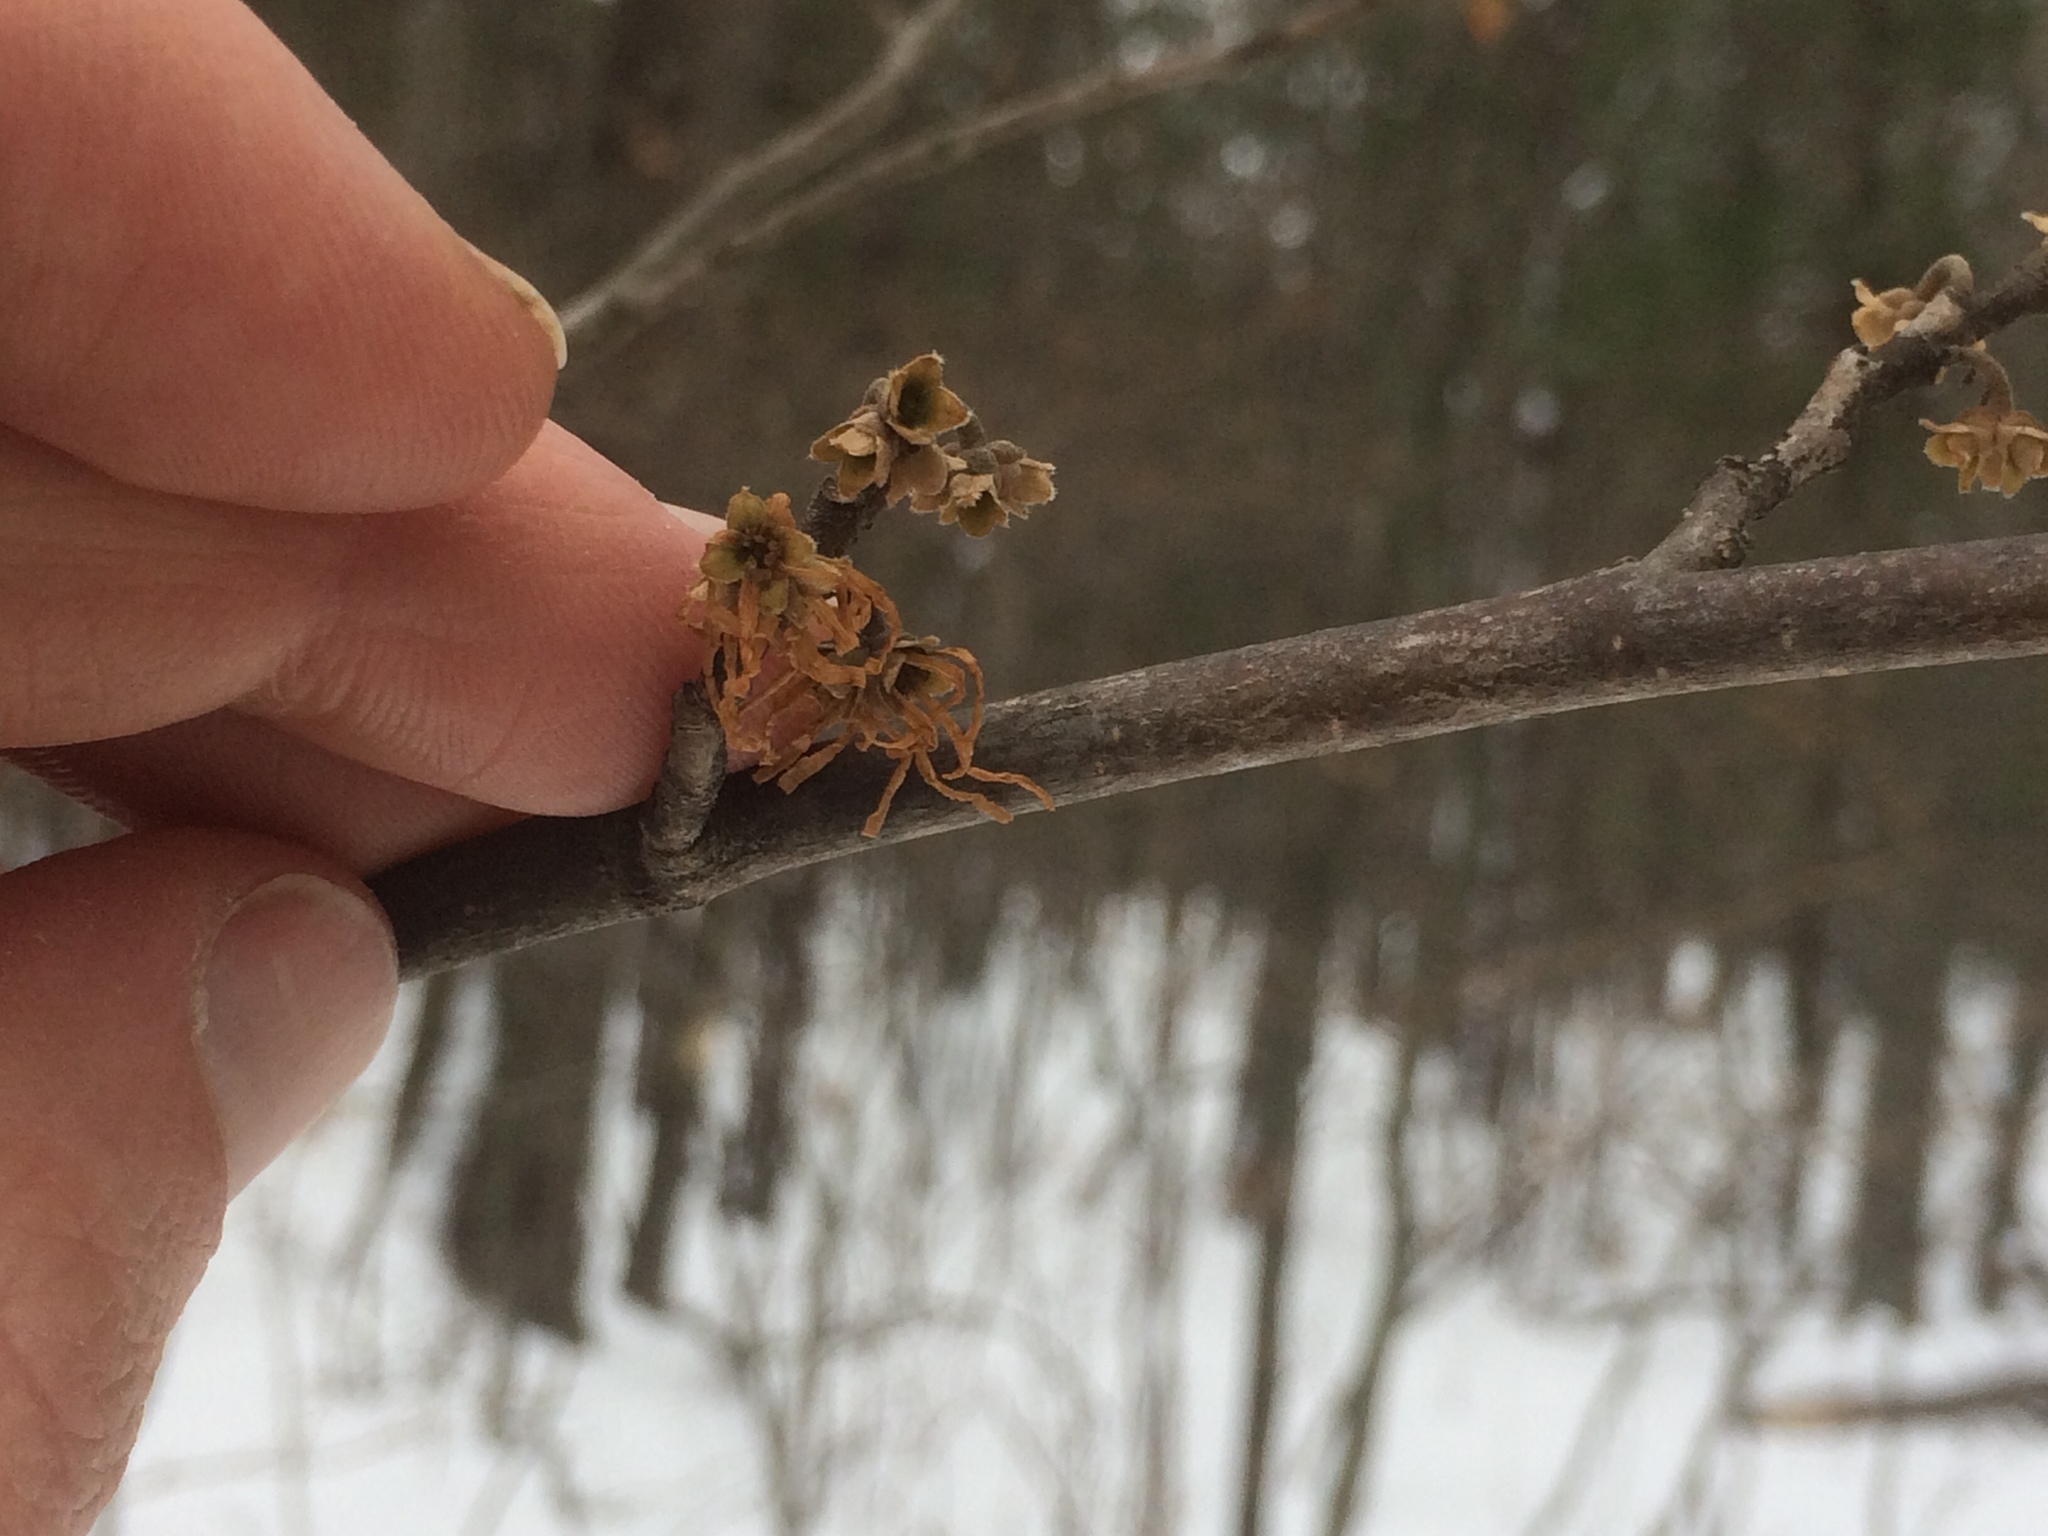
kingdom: Plantae
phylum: Tracheophyta
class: Magnoliopsida
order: Saxifragales
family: Hamamelidaceae
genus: Hamamelis
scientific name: Hamamelis virginiana
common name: Witch-hazel
